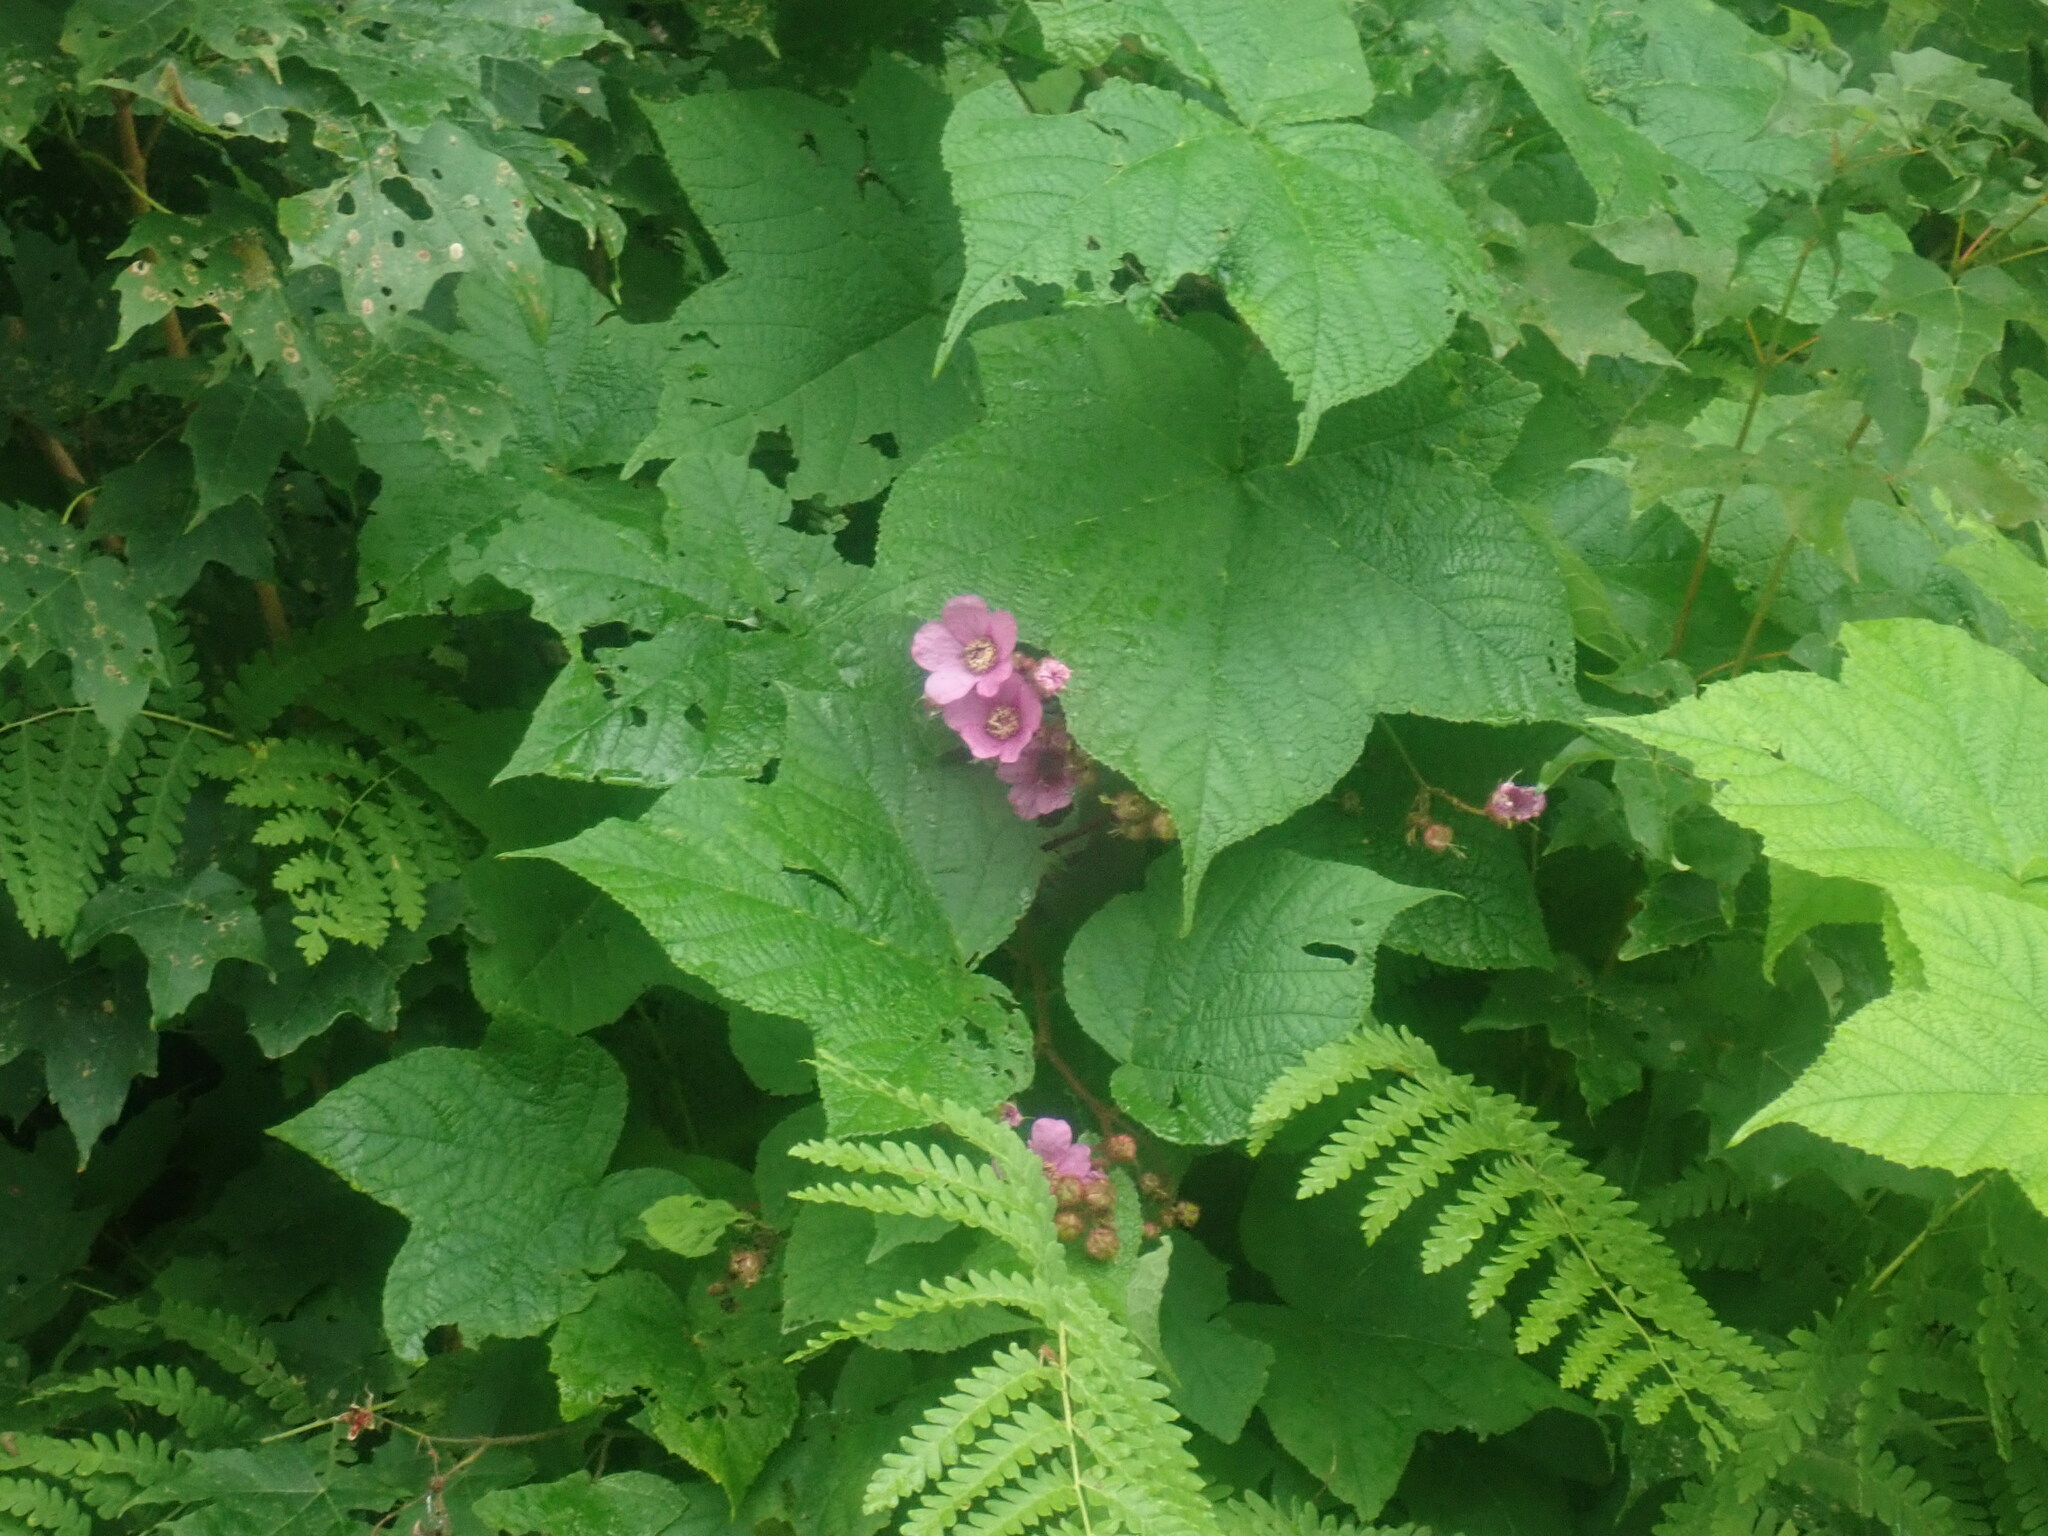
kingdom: Plantae
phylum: Tracheophyta
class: Magnoliopsida
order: Rosales
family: Rosaceae
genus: Rubus
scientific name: Rubus odoratus
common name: Purple-flowered raspberry
